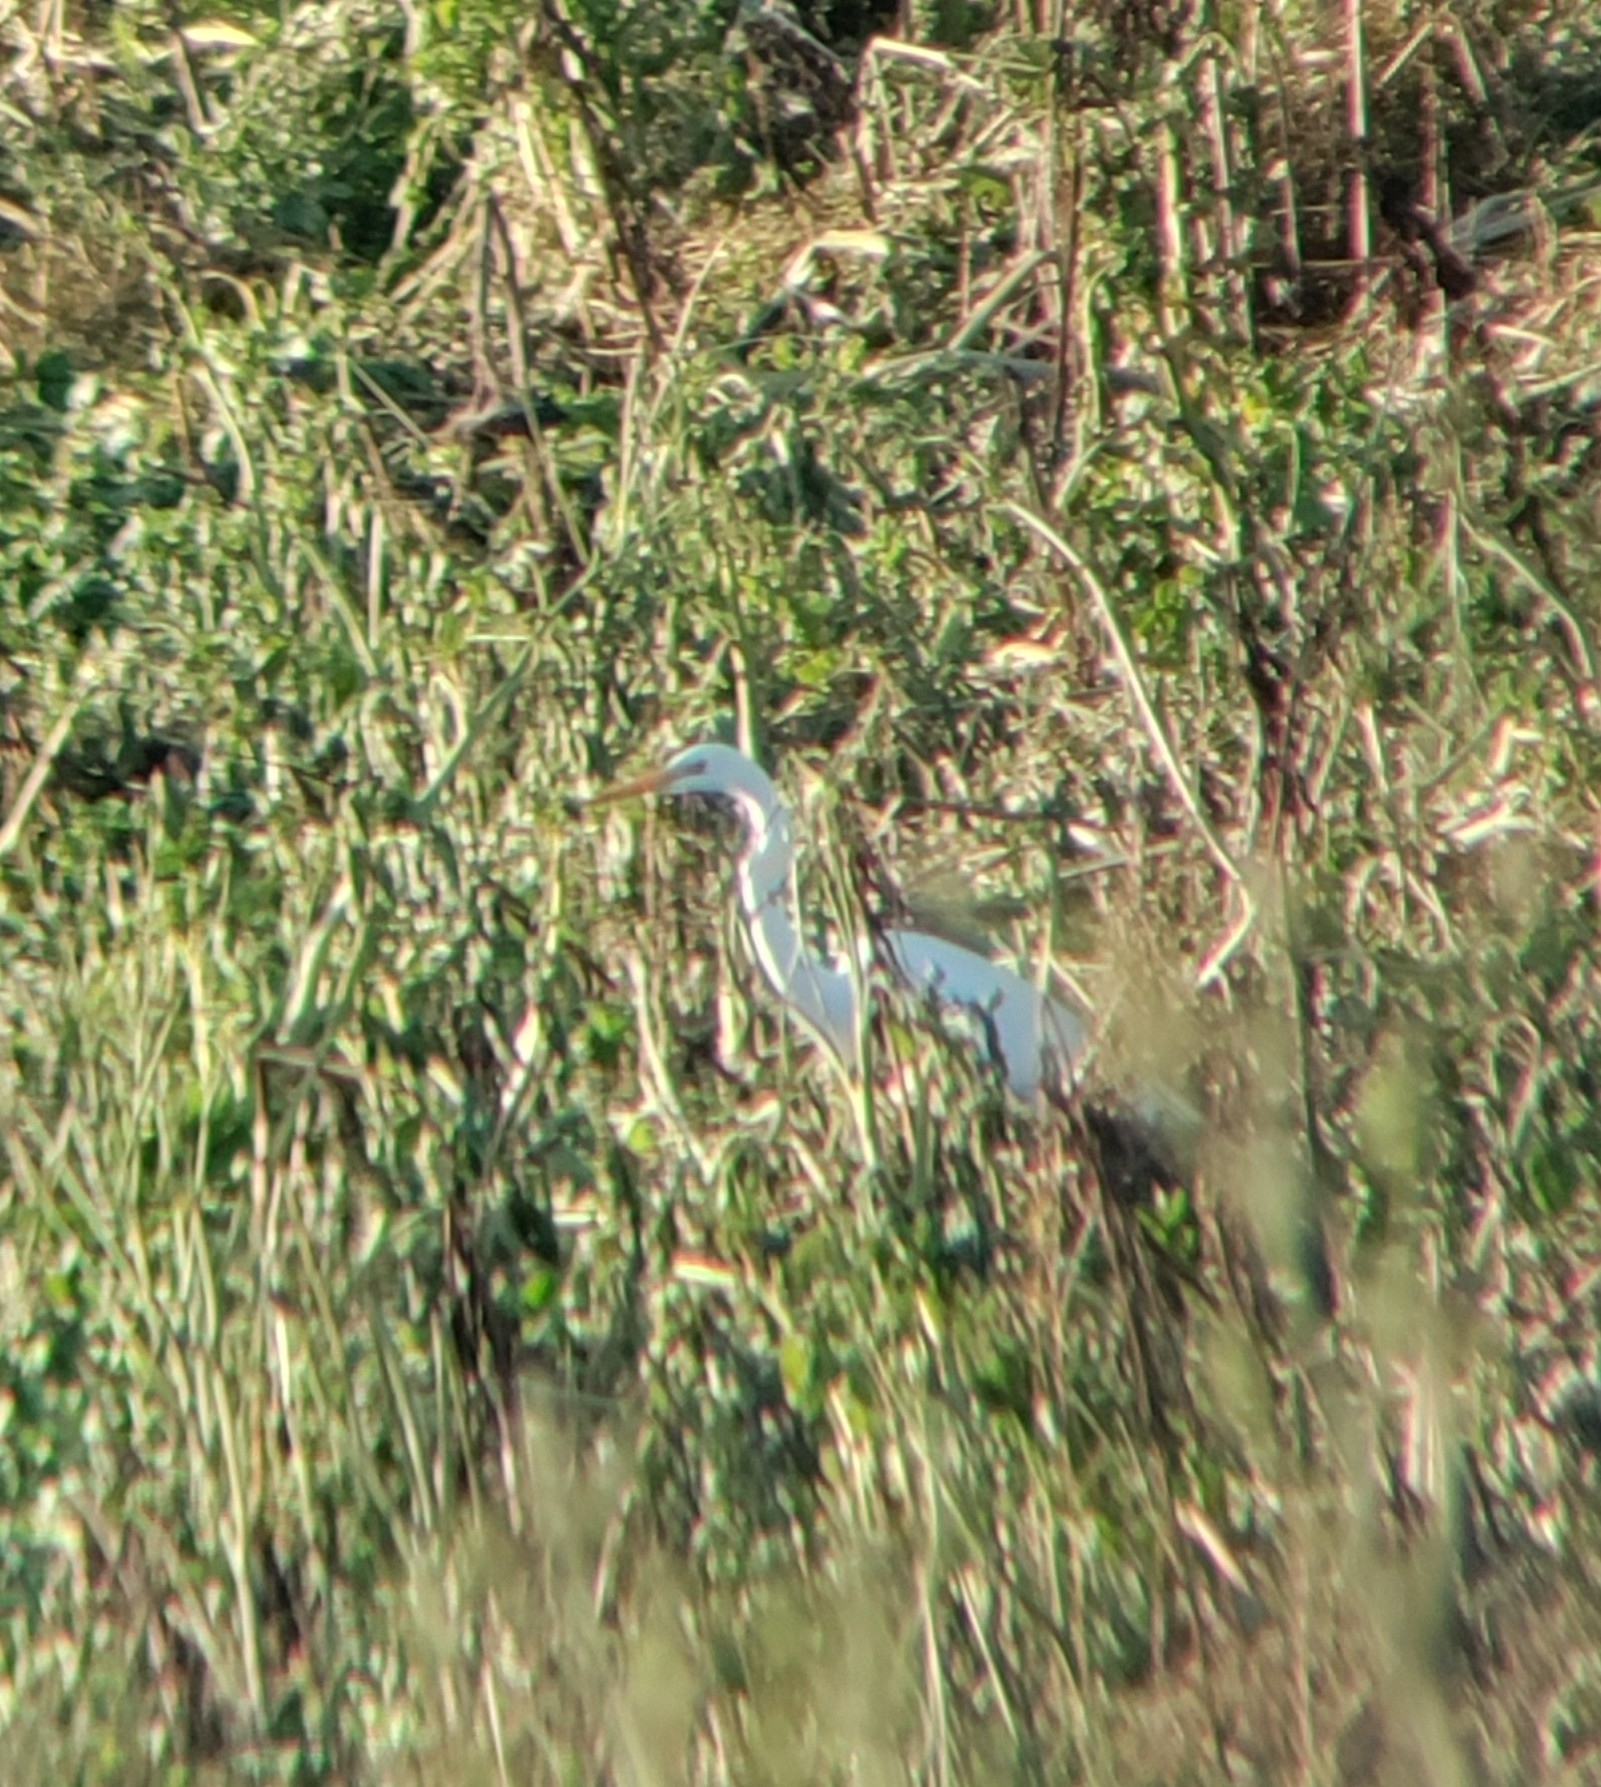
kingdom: Animalia
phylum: Chordata
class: Aves
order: Pelecaniformes
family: Ardeidae
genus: Ardea
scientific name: Ardea alba
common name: Great egret
